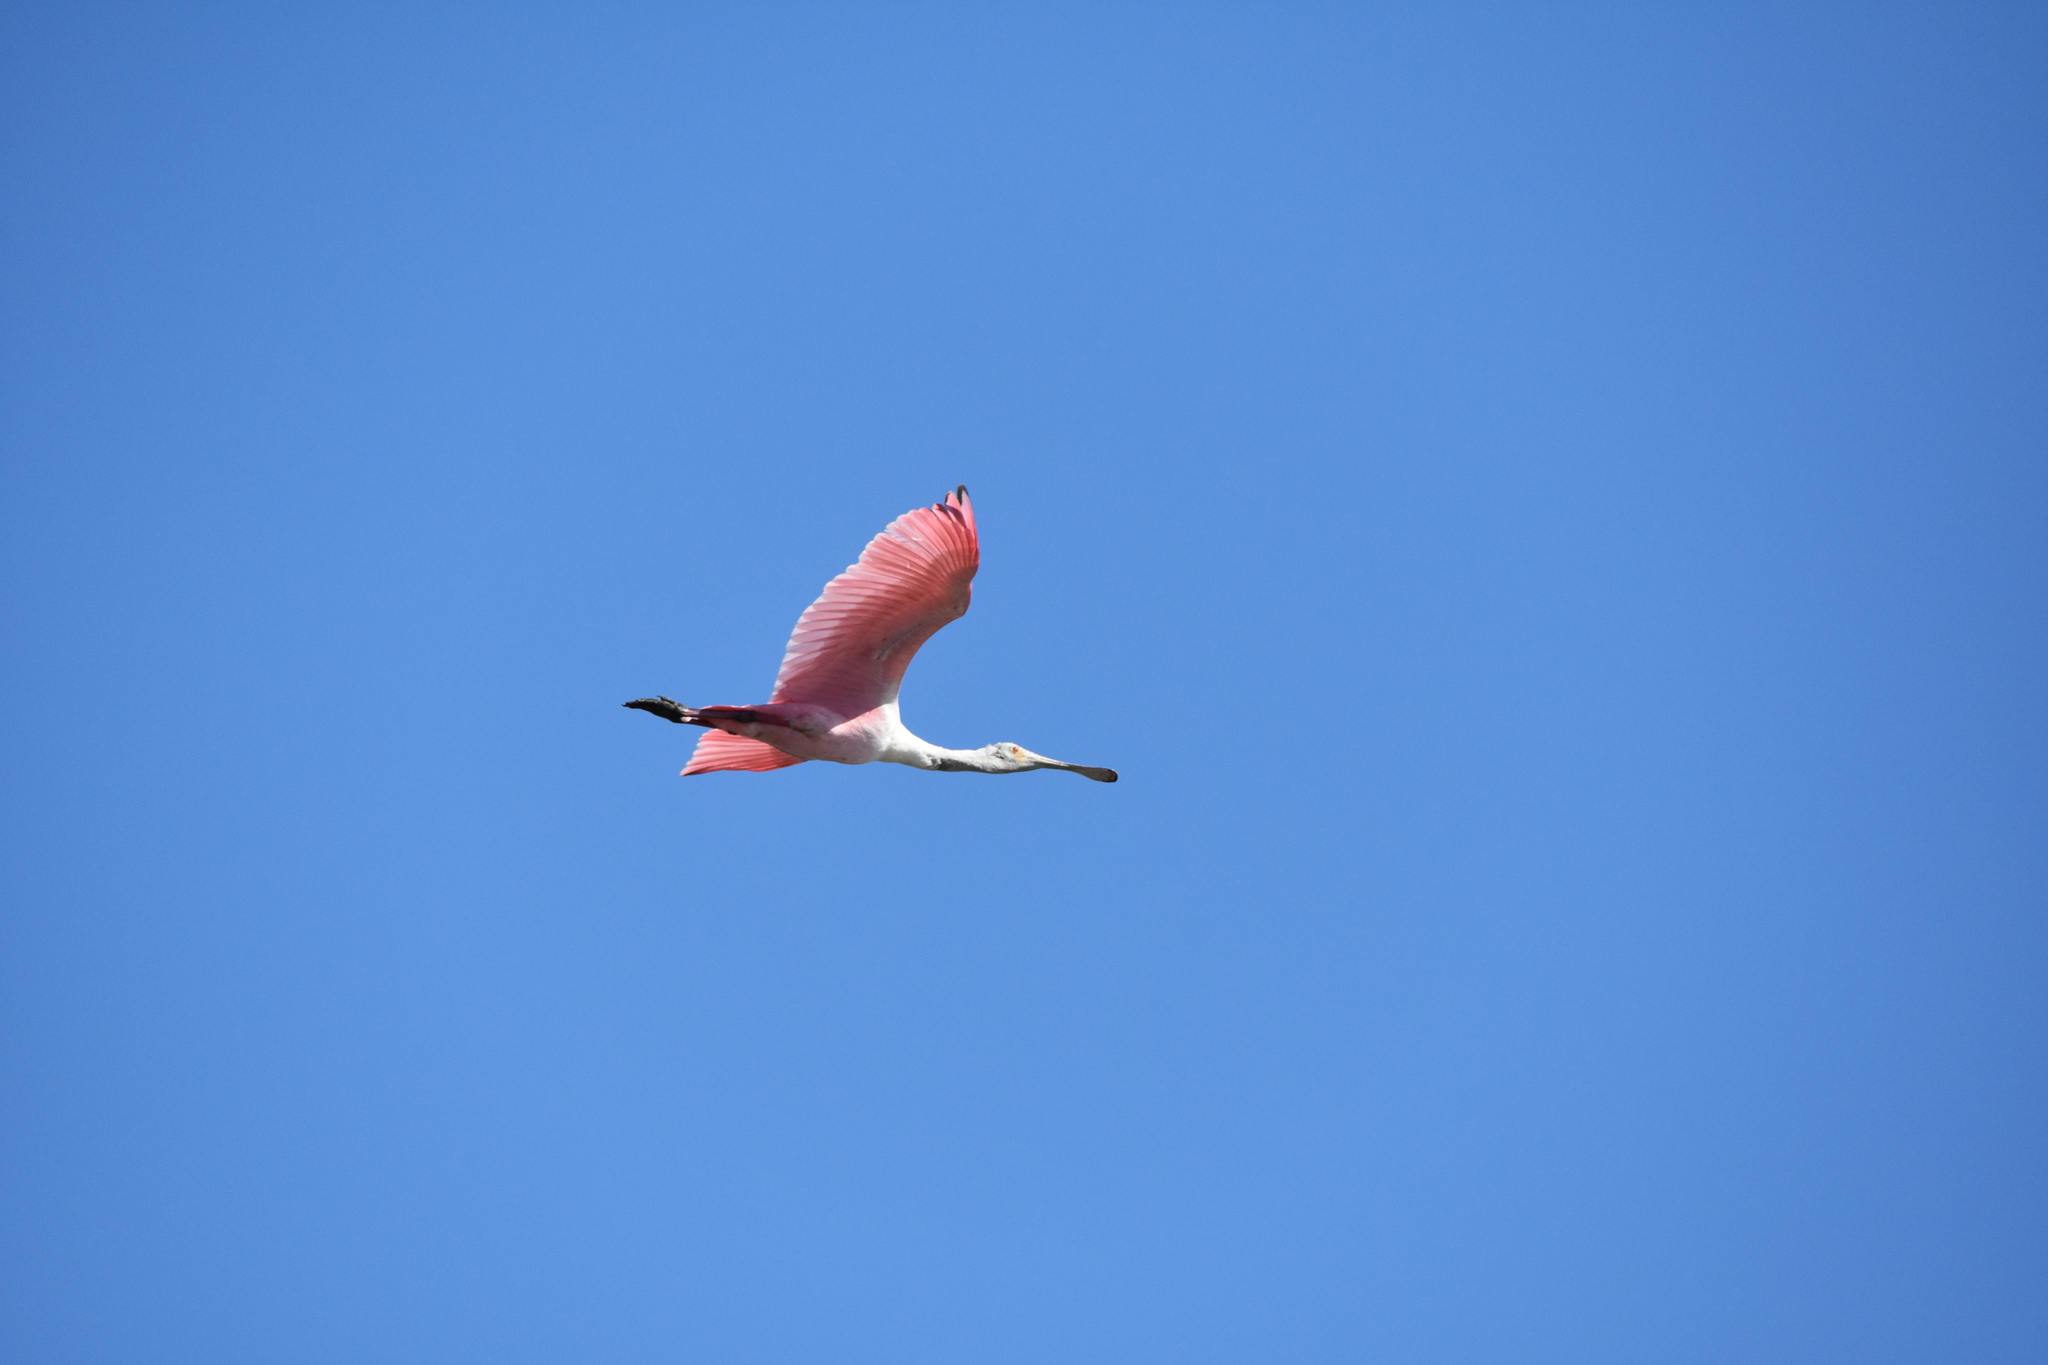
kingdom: Animalia
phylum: Chordata
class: Aves
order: Pelecaniformes
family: Threskiornithidae
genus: Platalea
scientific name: Platalea ajaja
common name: Roseate spoonbill
